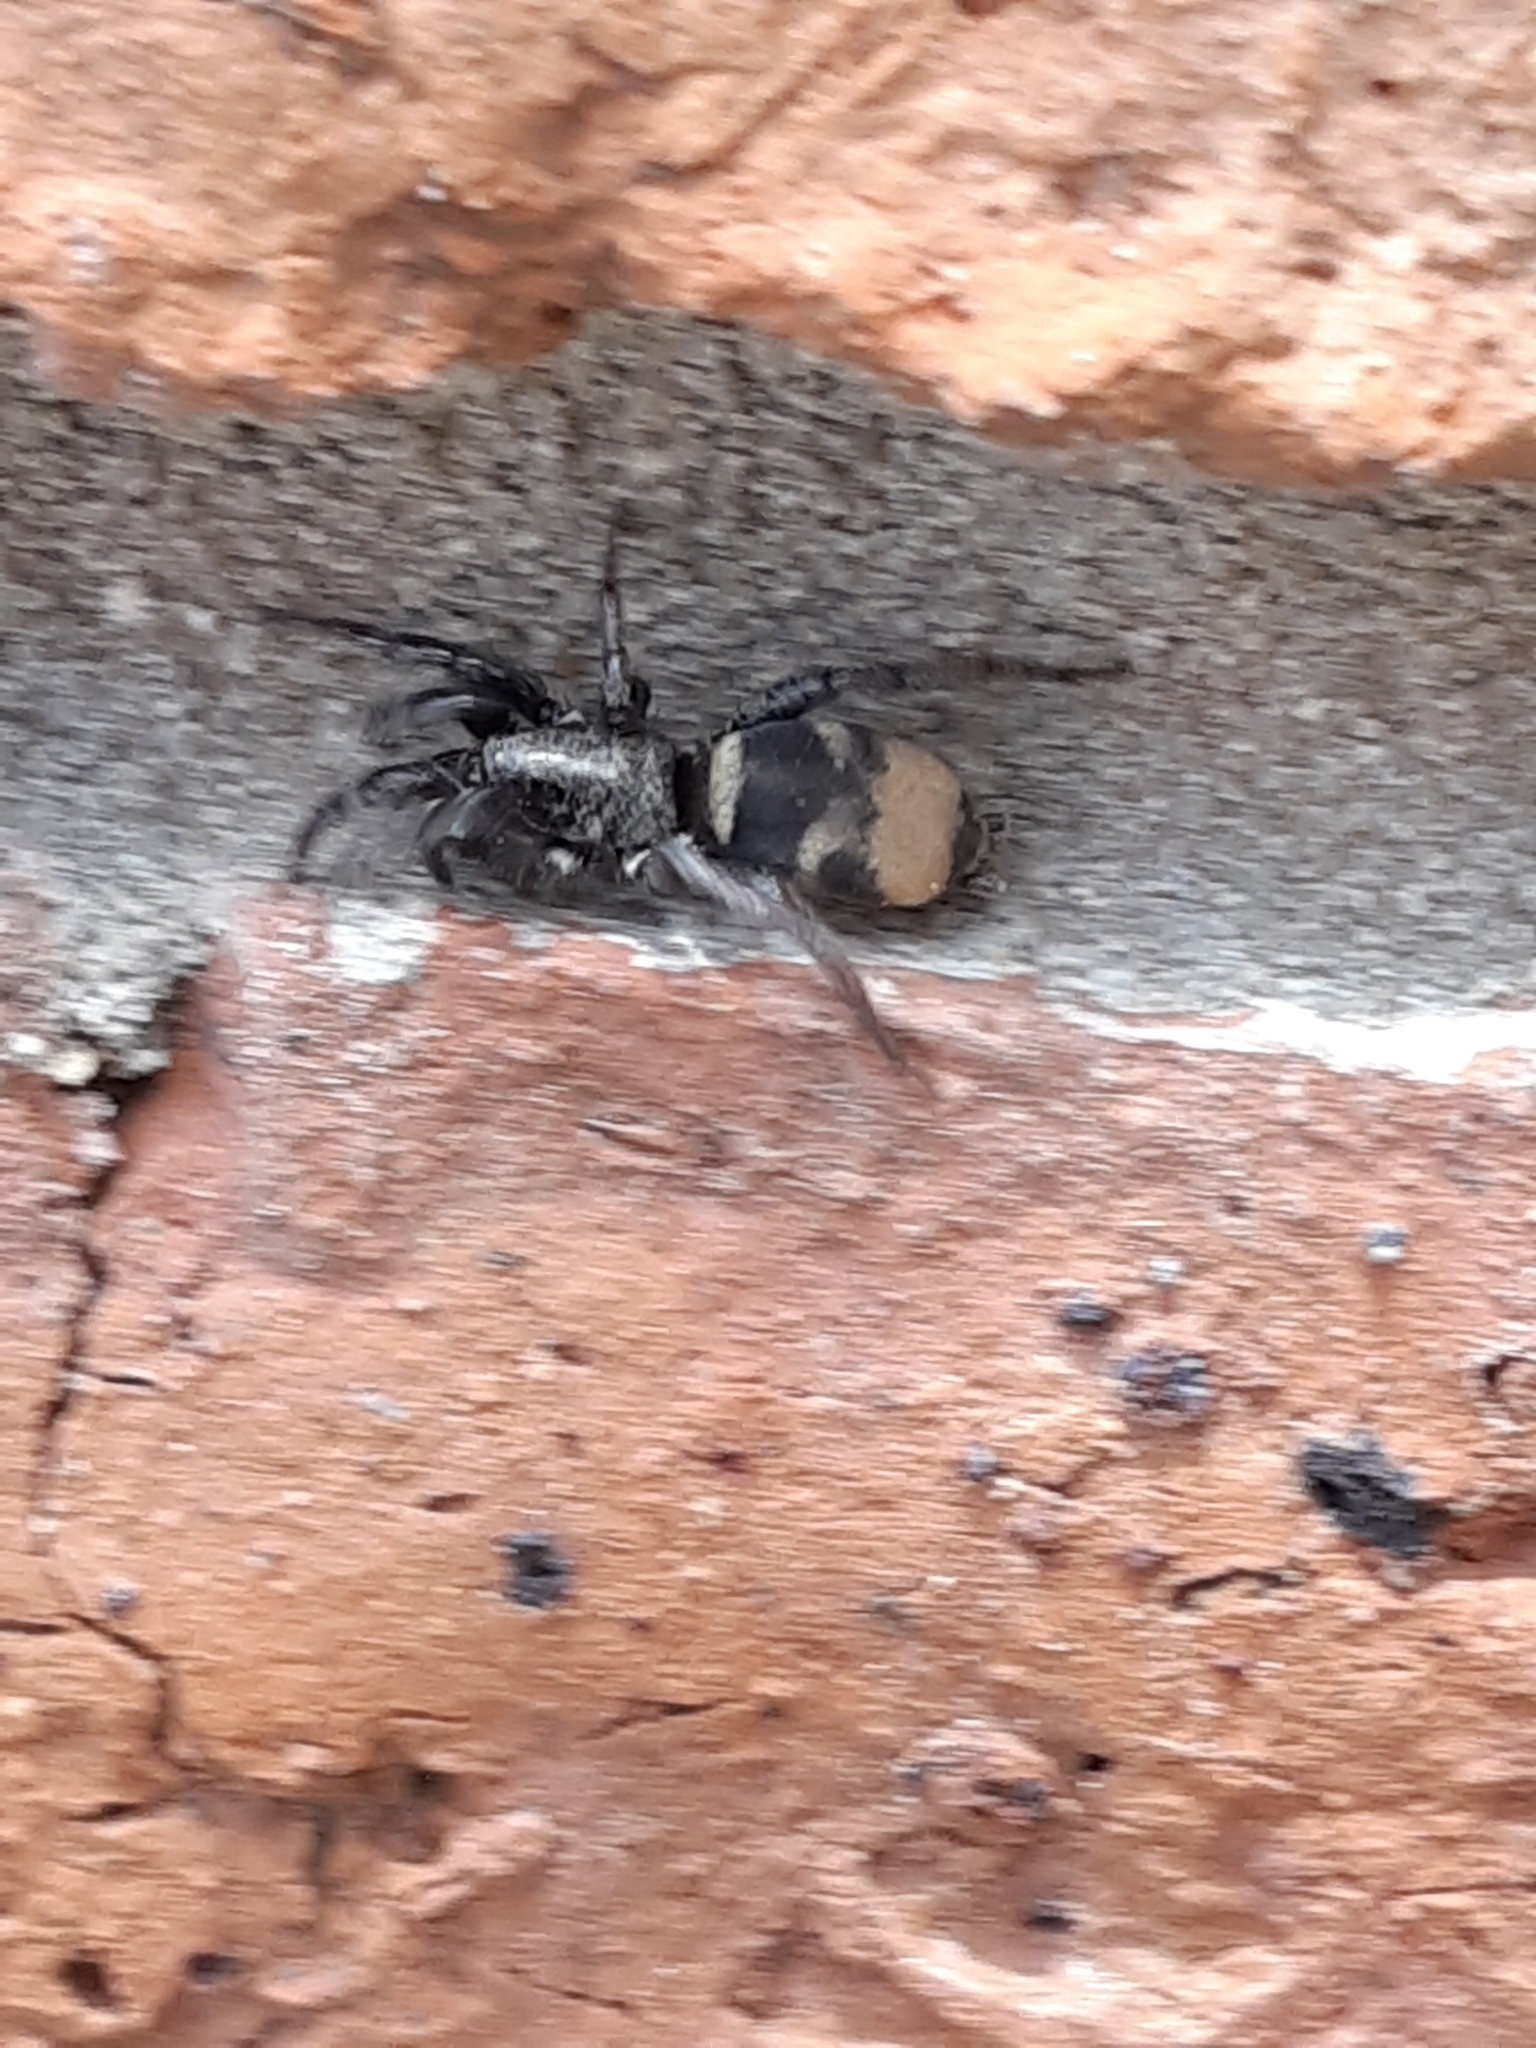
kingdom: Animalia
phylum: Arthropoda
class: Arachnida
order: Araneae
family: Gnaphosidae
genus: Latonigena
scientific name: Latonigena auricomis
